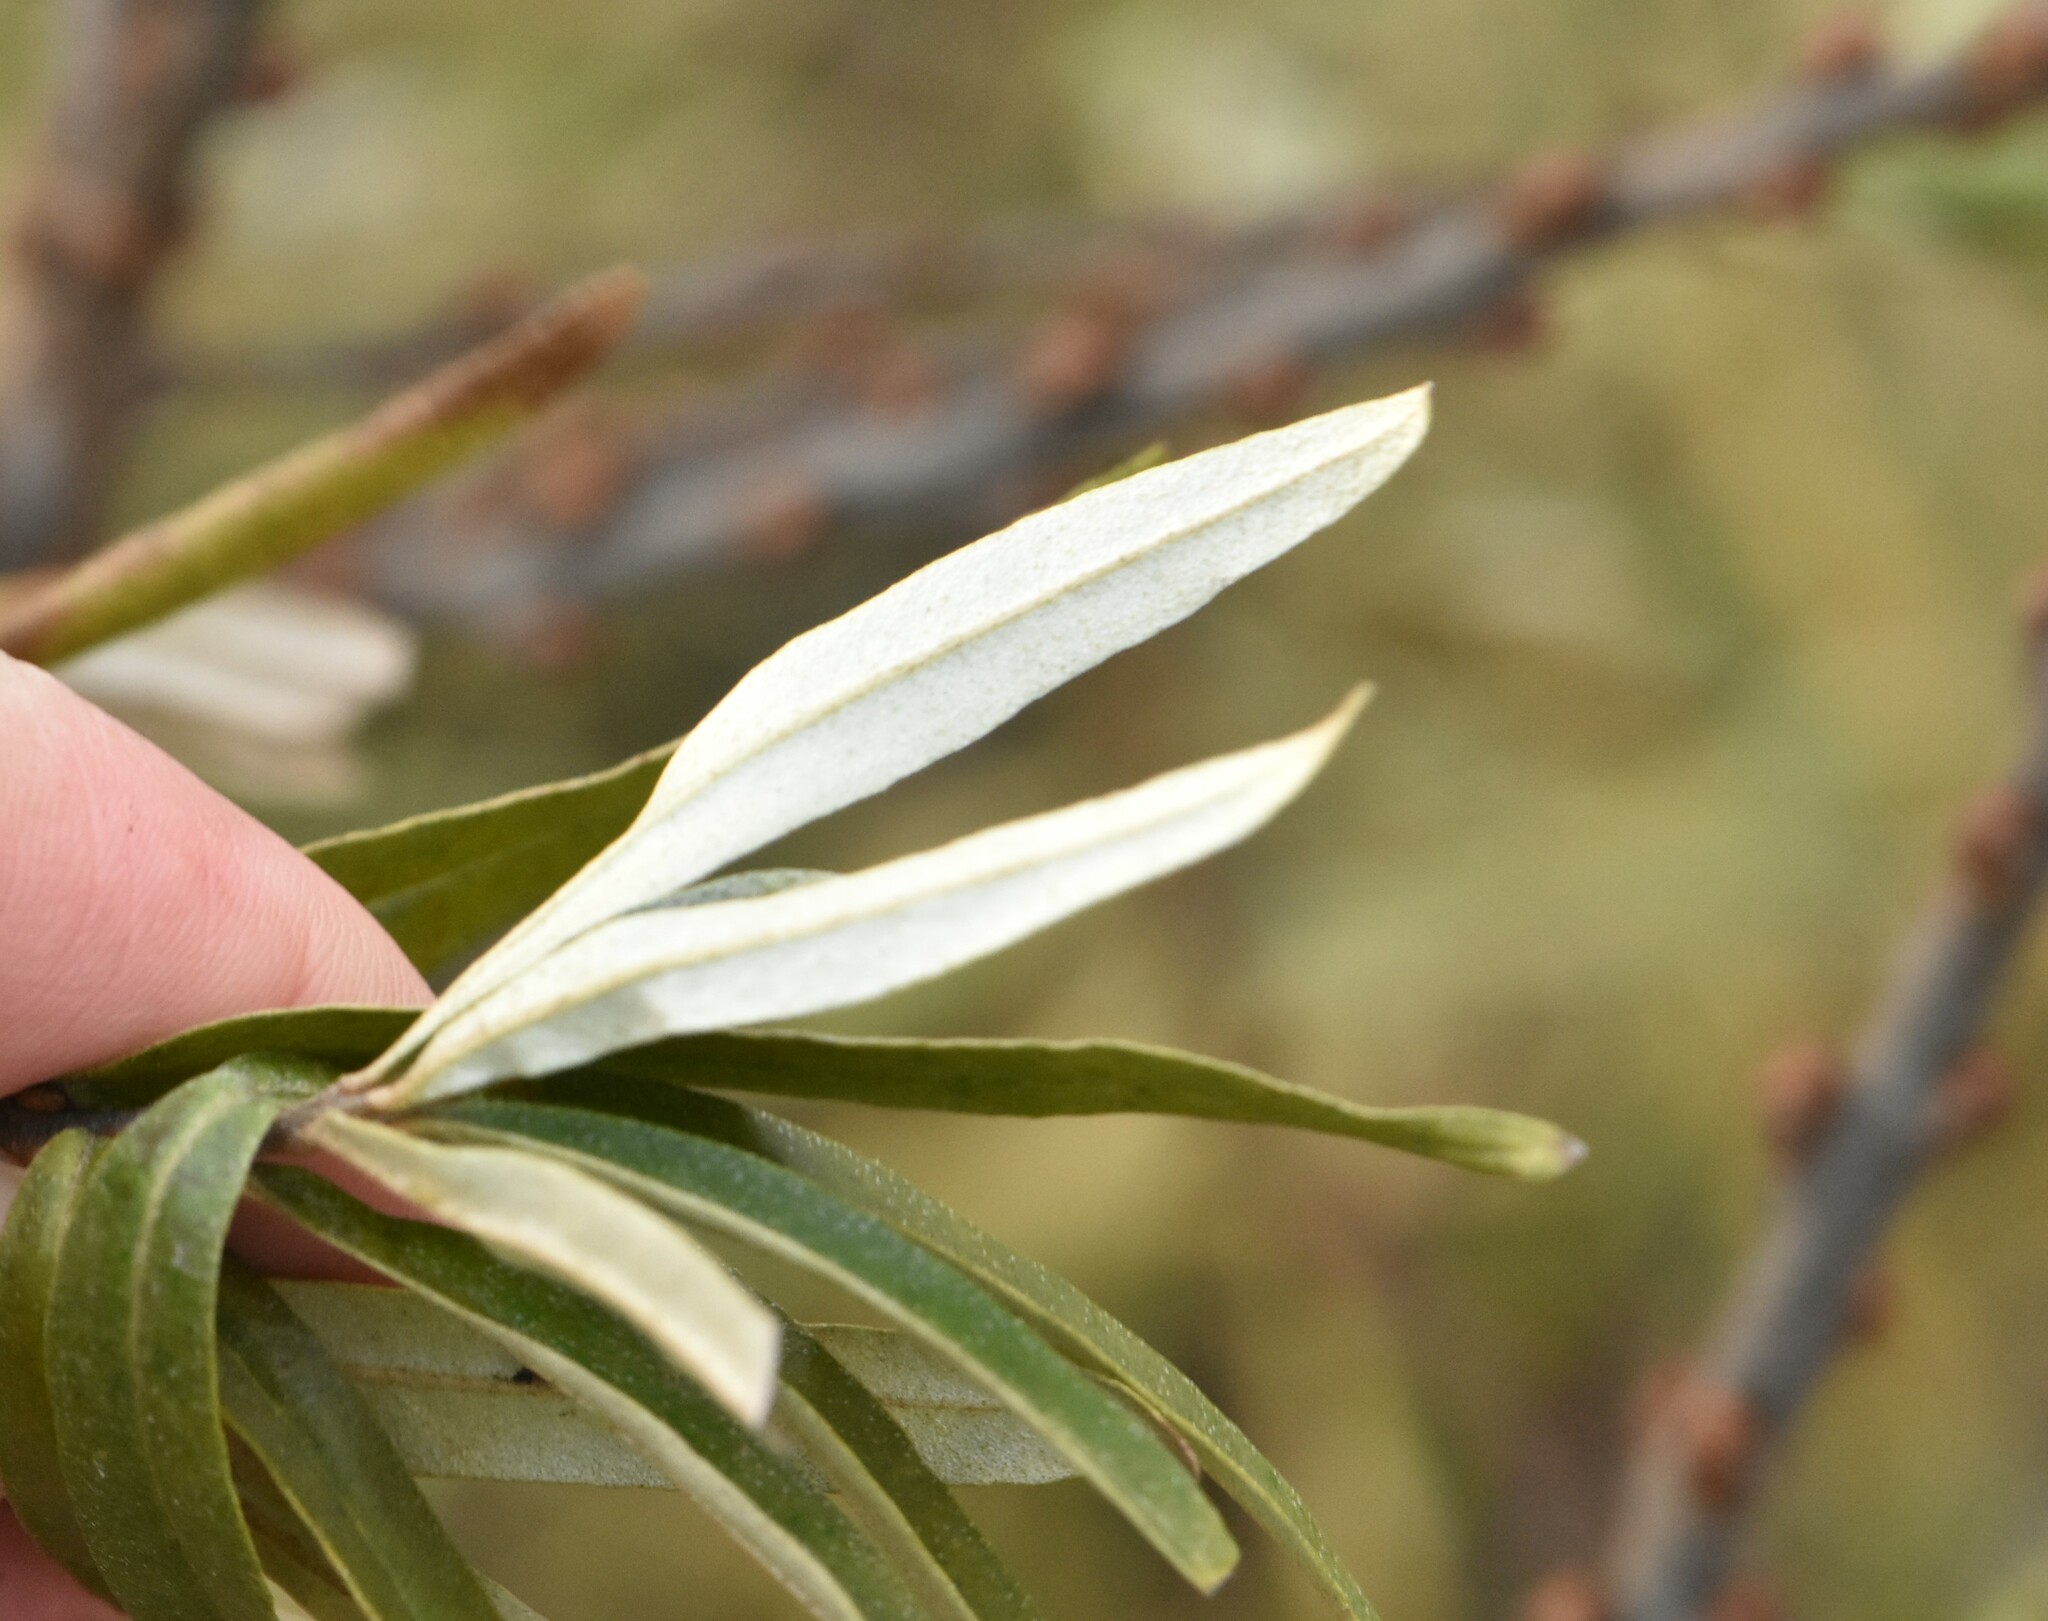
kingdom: Plantae
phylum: Tracheophyta
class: Magnoliopsida
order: Rosales
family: Elaeagnaceae
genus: Hippophae
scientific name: Hippophae rhamnoides
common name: Sea-buckthorn
